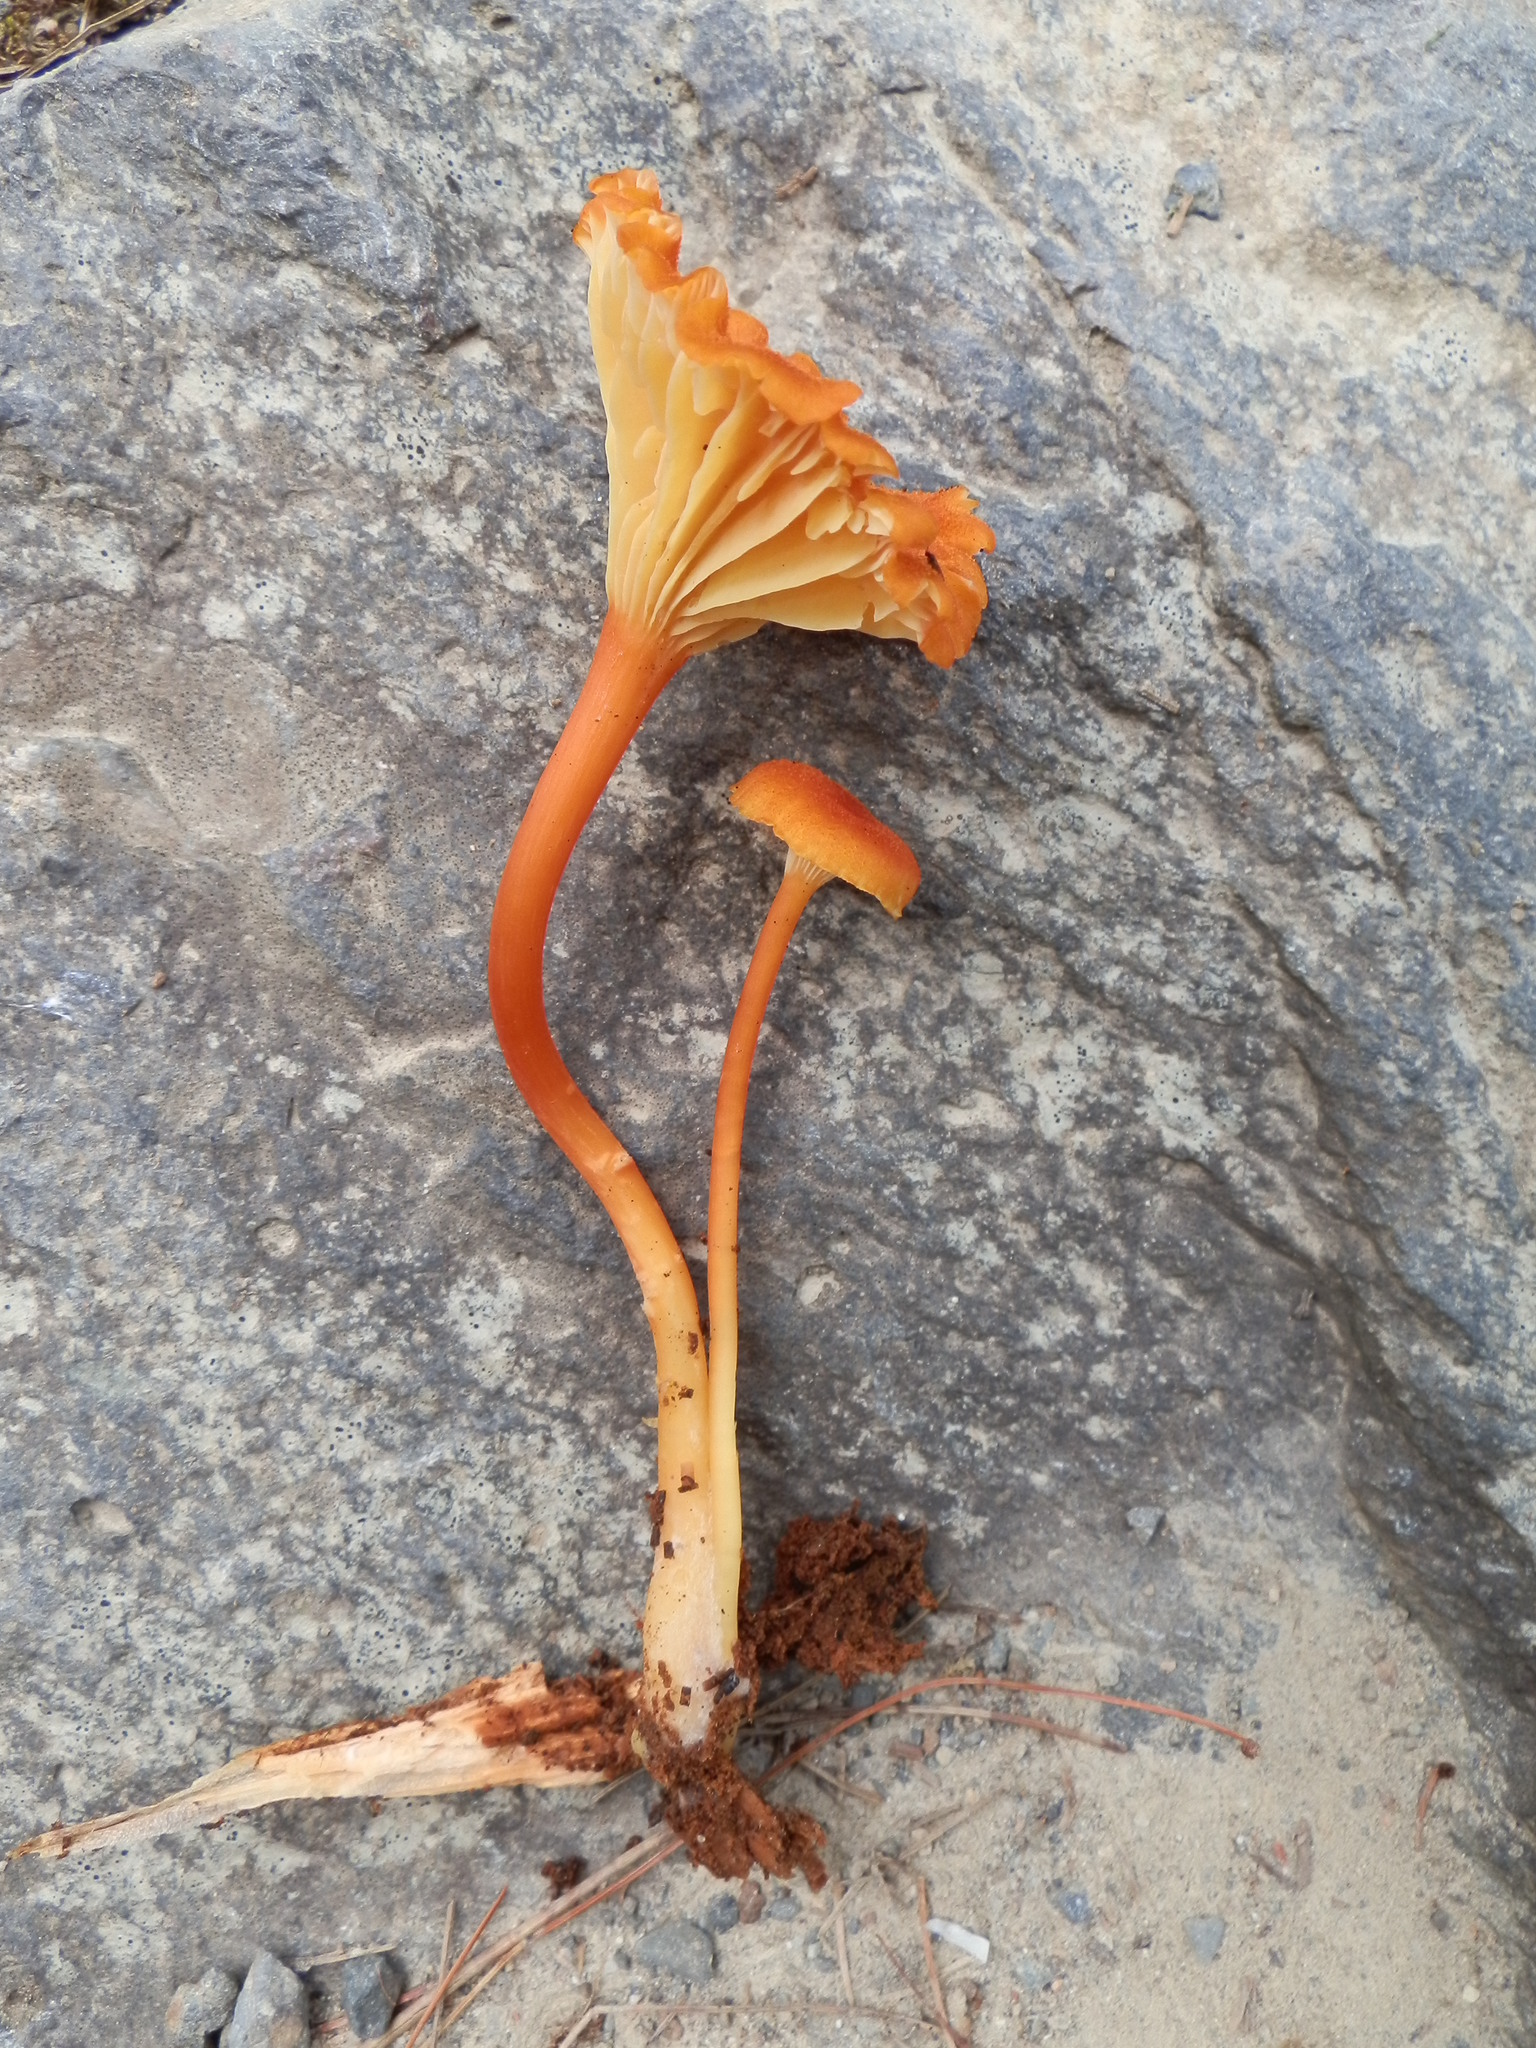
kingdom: Fungi
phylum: Basidiomycota
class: Agaricomycetes
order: Agaricales
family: Hygrophoraceae
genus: Hygrocybe
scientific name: Hygrocybe cantharellus
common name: Goblet waxcap
